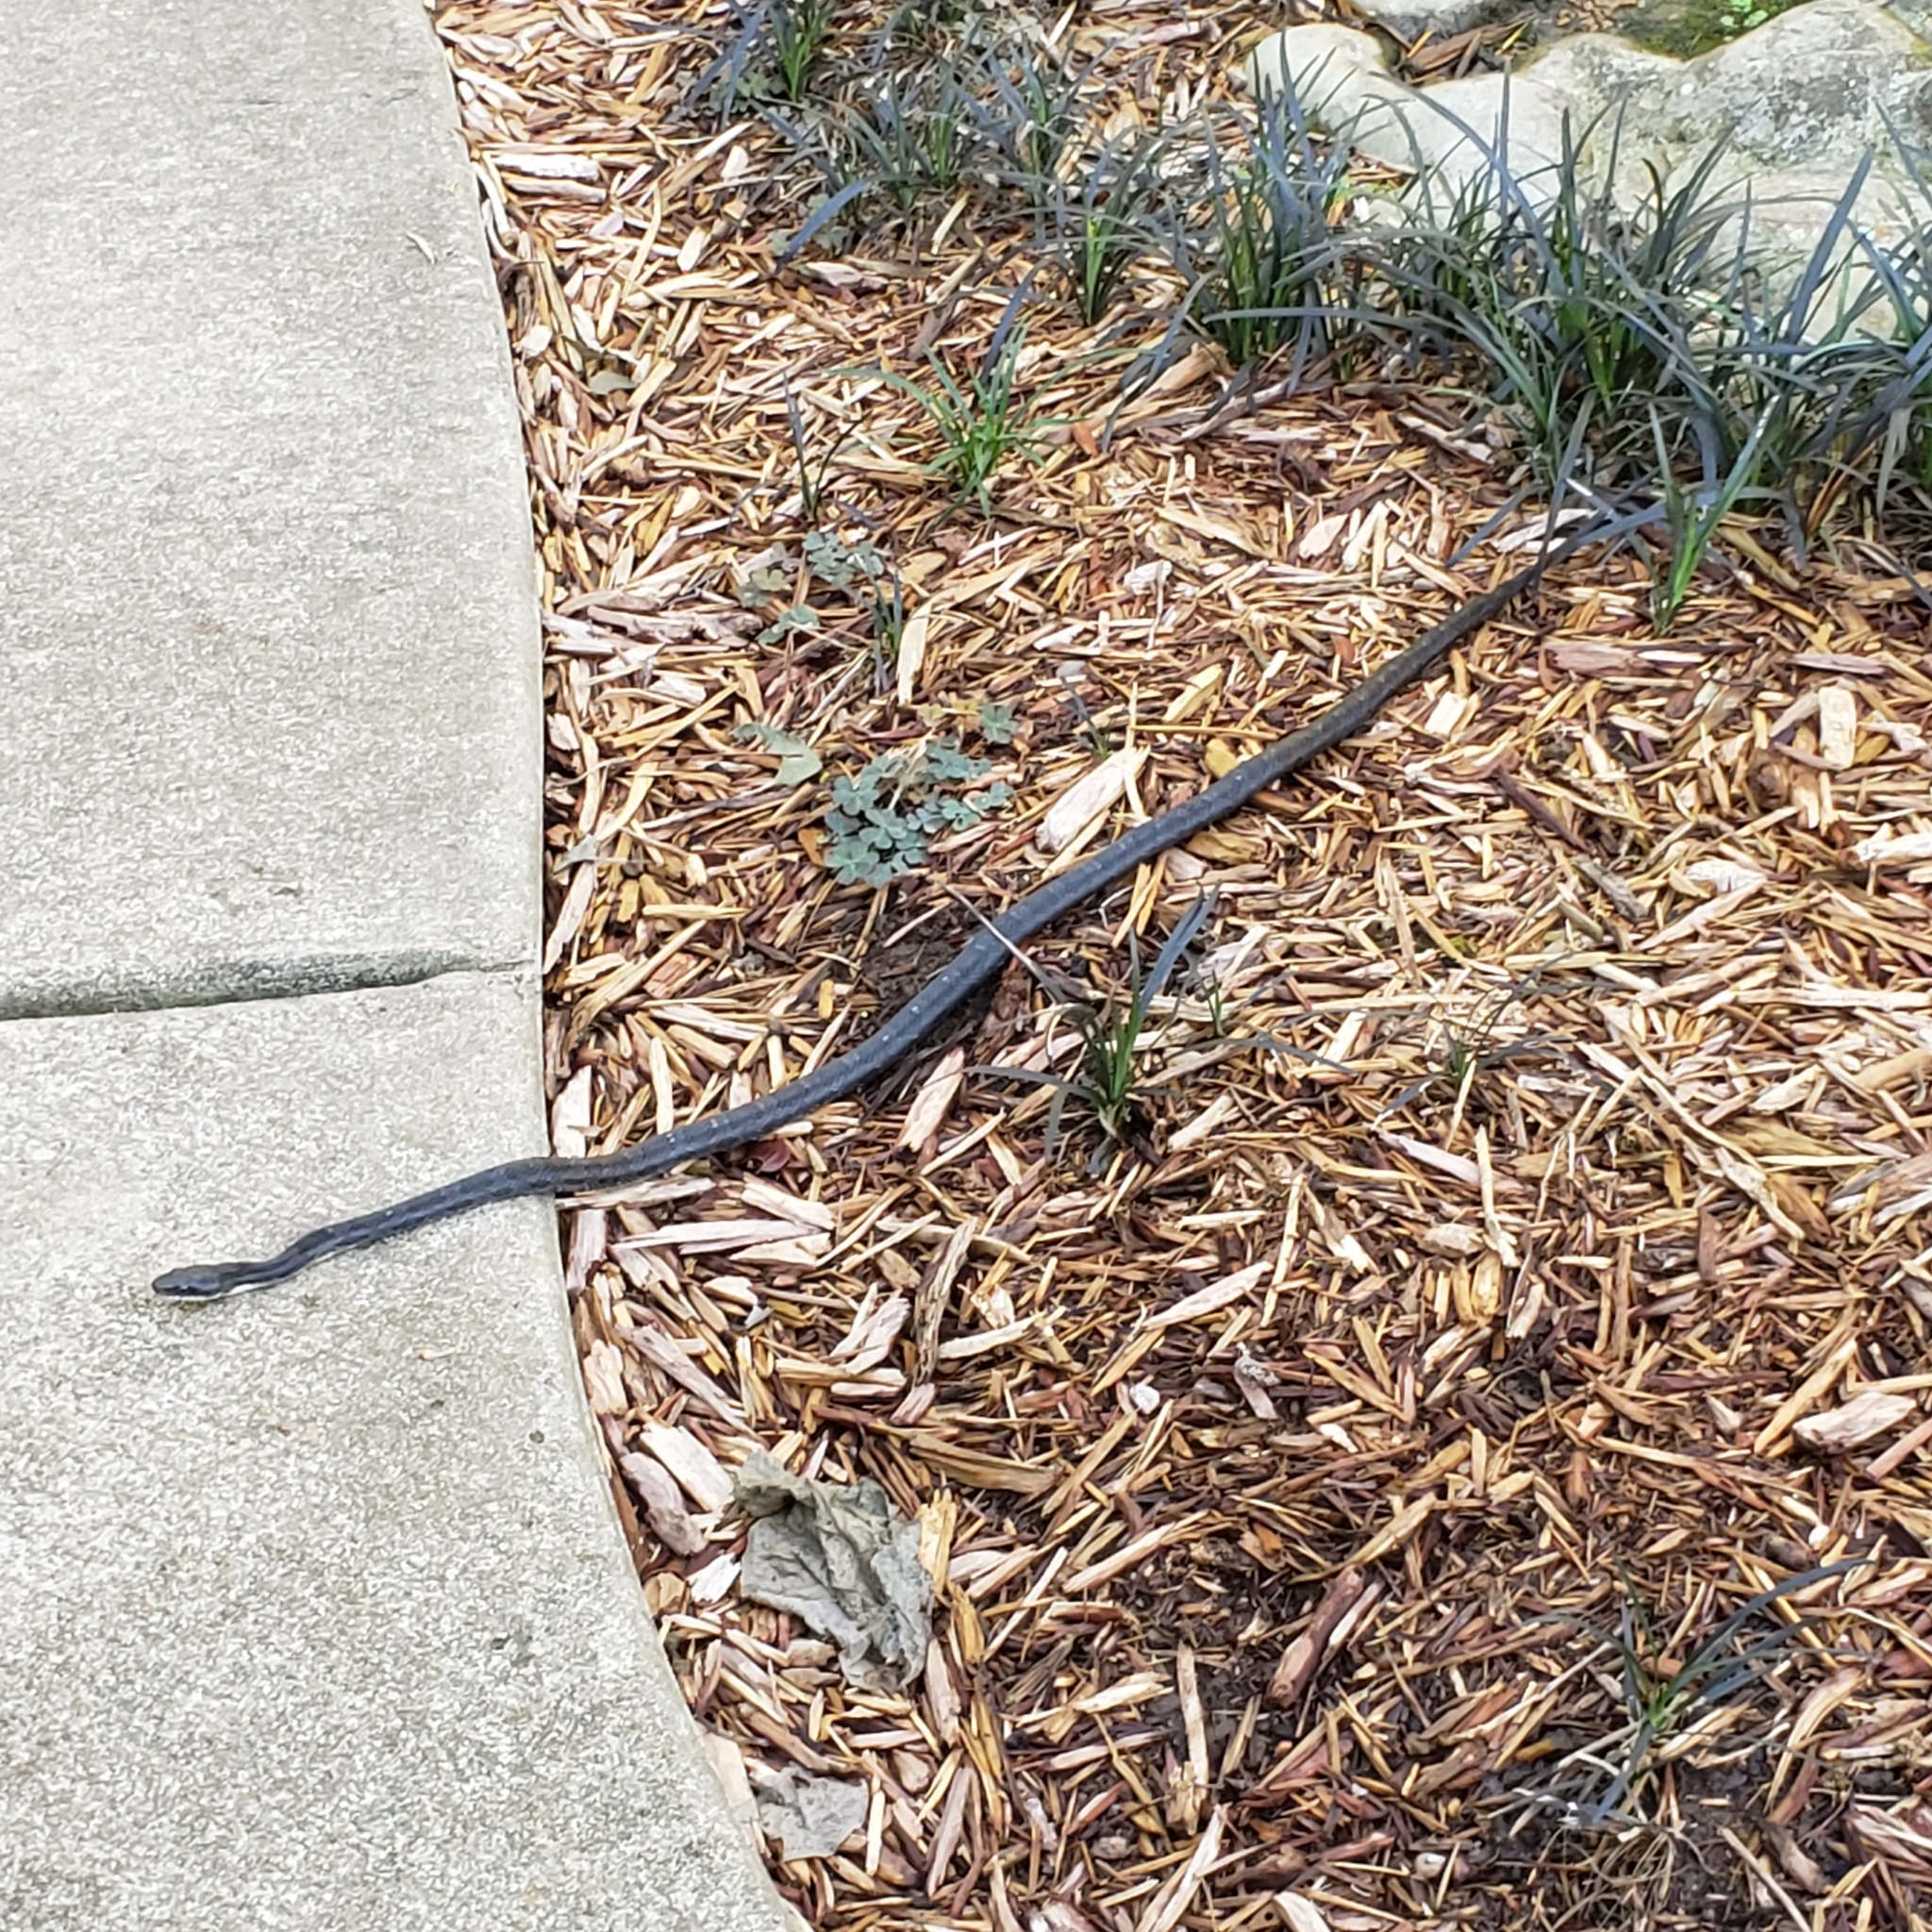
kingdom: Animalia
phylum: Chordata
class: Squamata
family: Colubridae
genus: Pantherophis
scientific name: Pantherophis obsoletus
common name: Black rat snake
